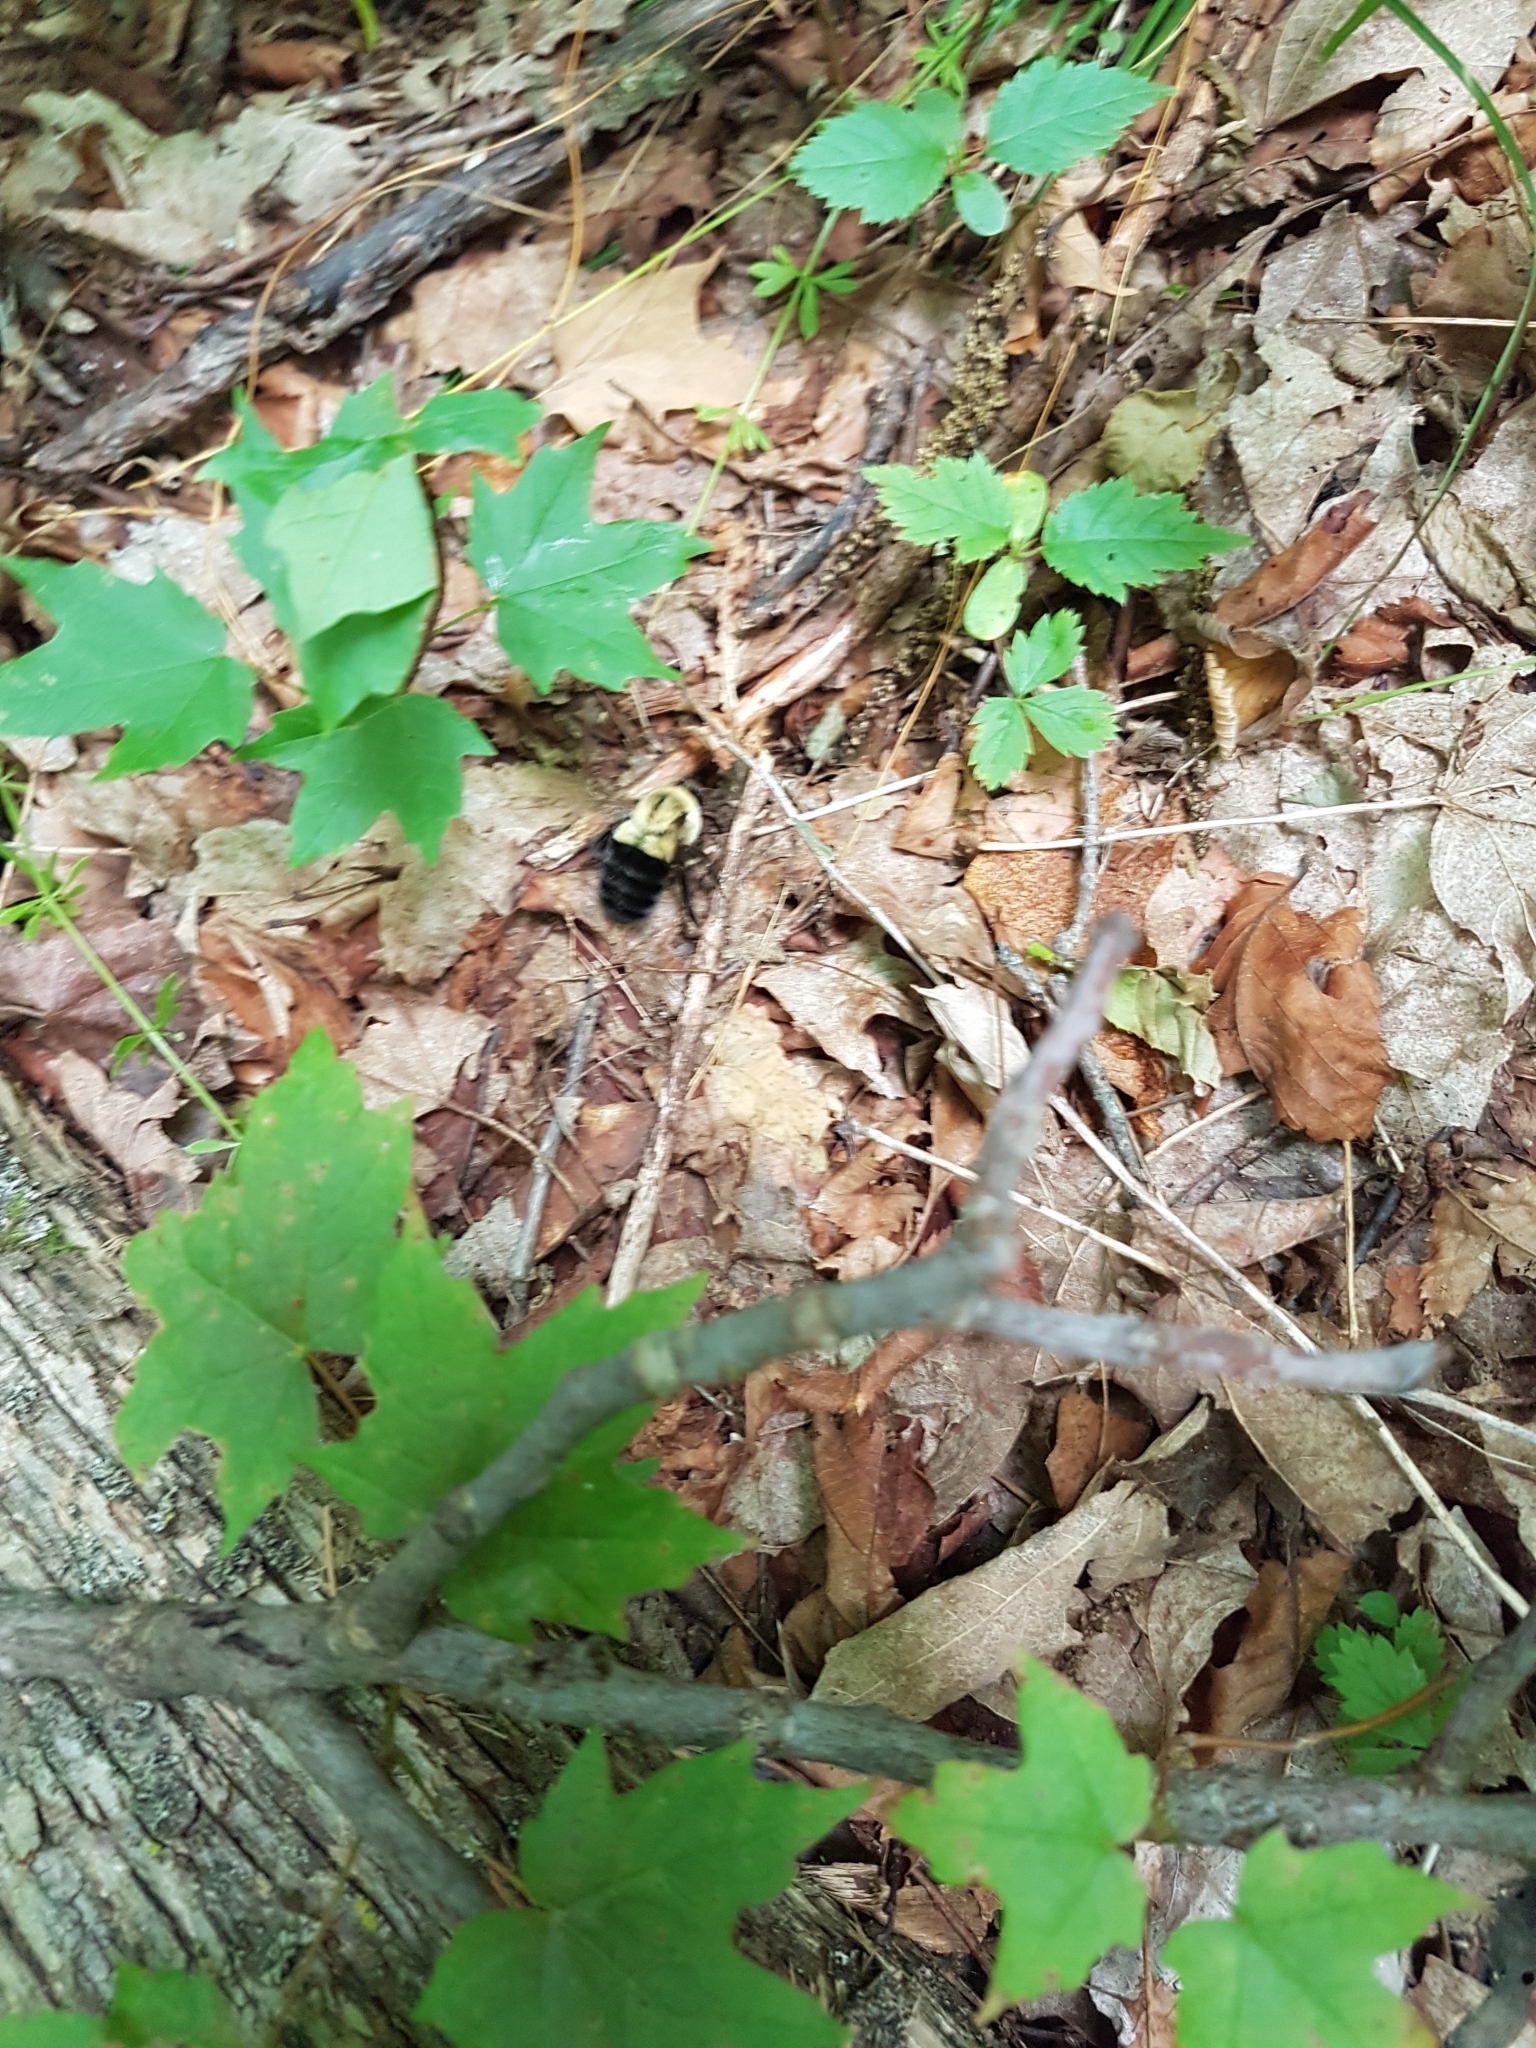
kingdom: Animalia
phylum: Arthropoda
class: Insecta
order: Hymenoptera
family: Apidae
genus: Bombus
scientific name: Bombus impatiens
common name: Common eastern bumble bee
